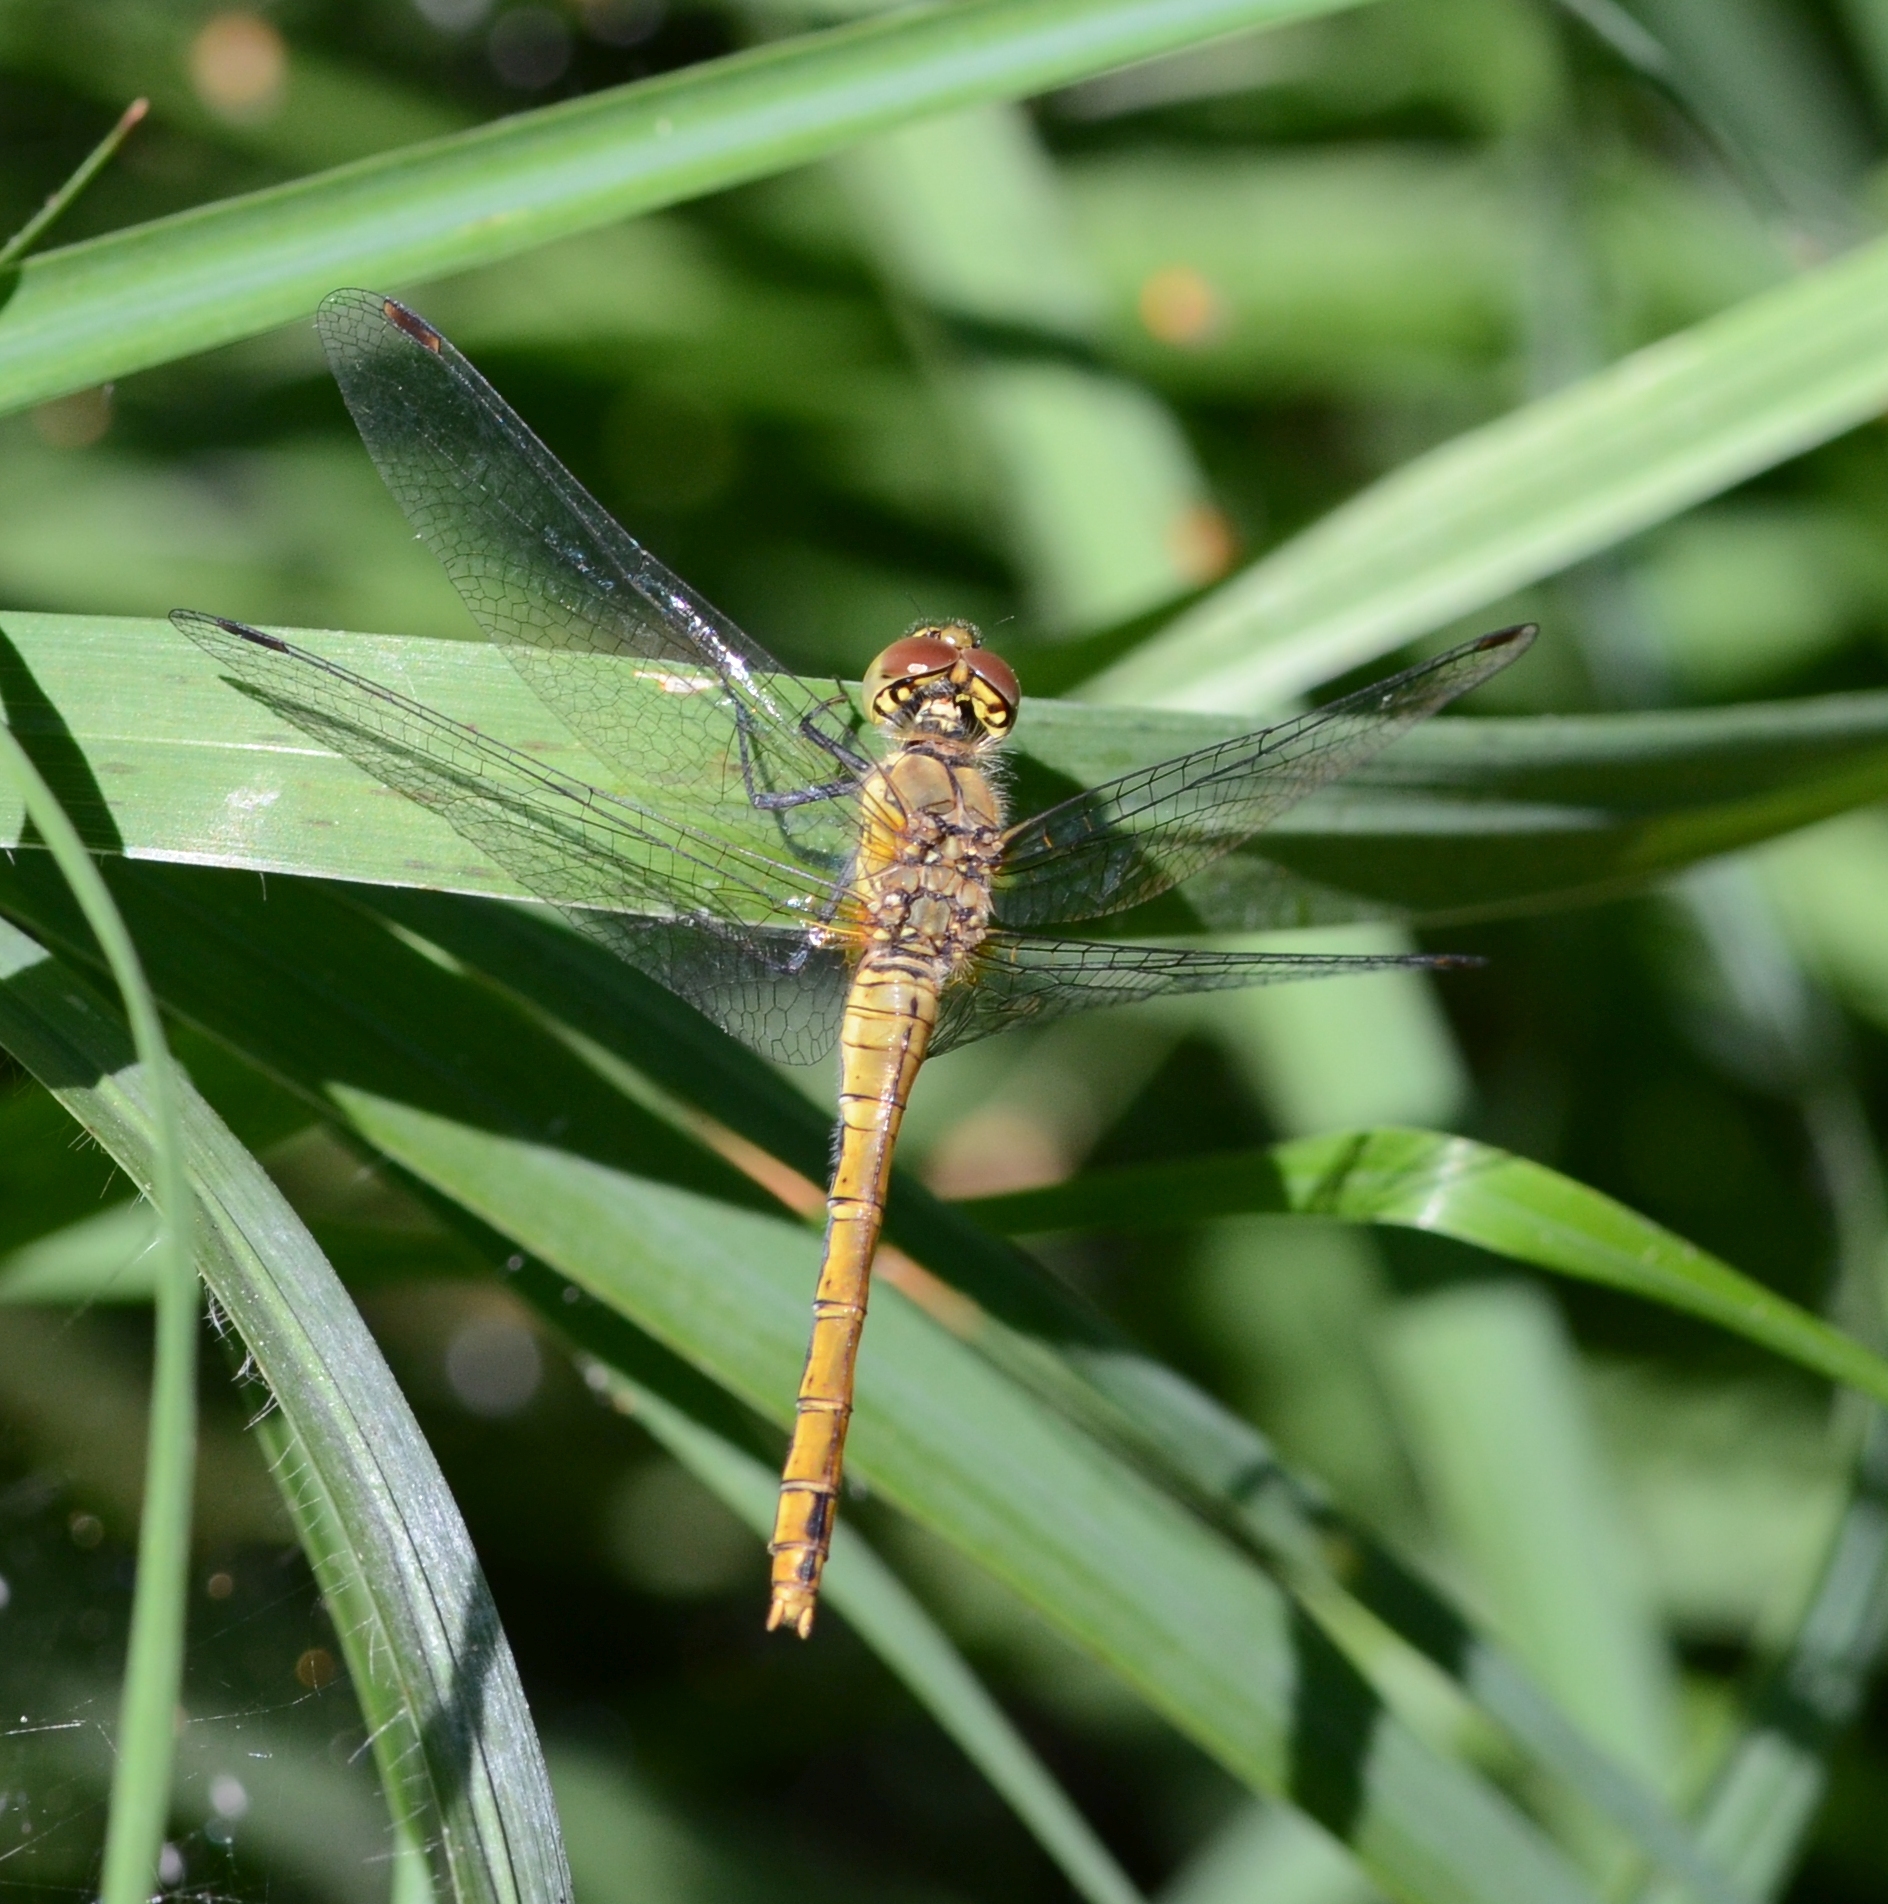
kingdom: Animalia
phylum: Arthropoda
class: Insecta
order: Odonata
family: Libellulidae
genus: Sympetrum
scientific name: Sympetrum sanguineum
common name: Ruddy darter
